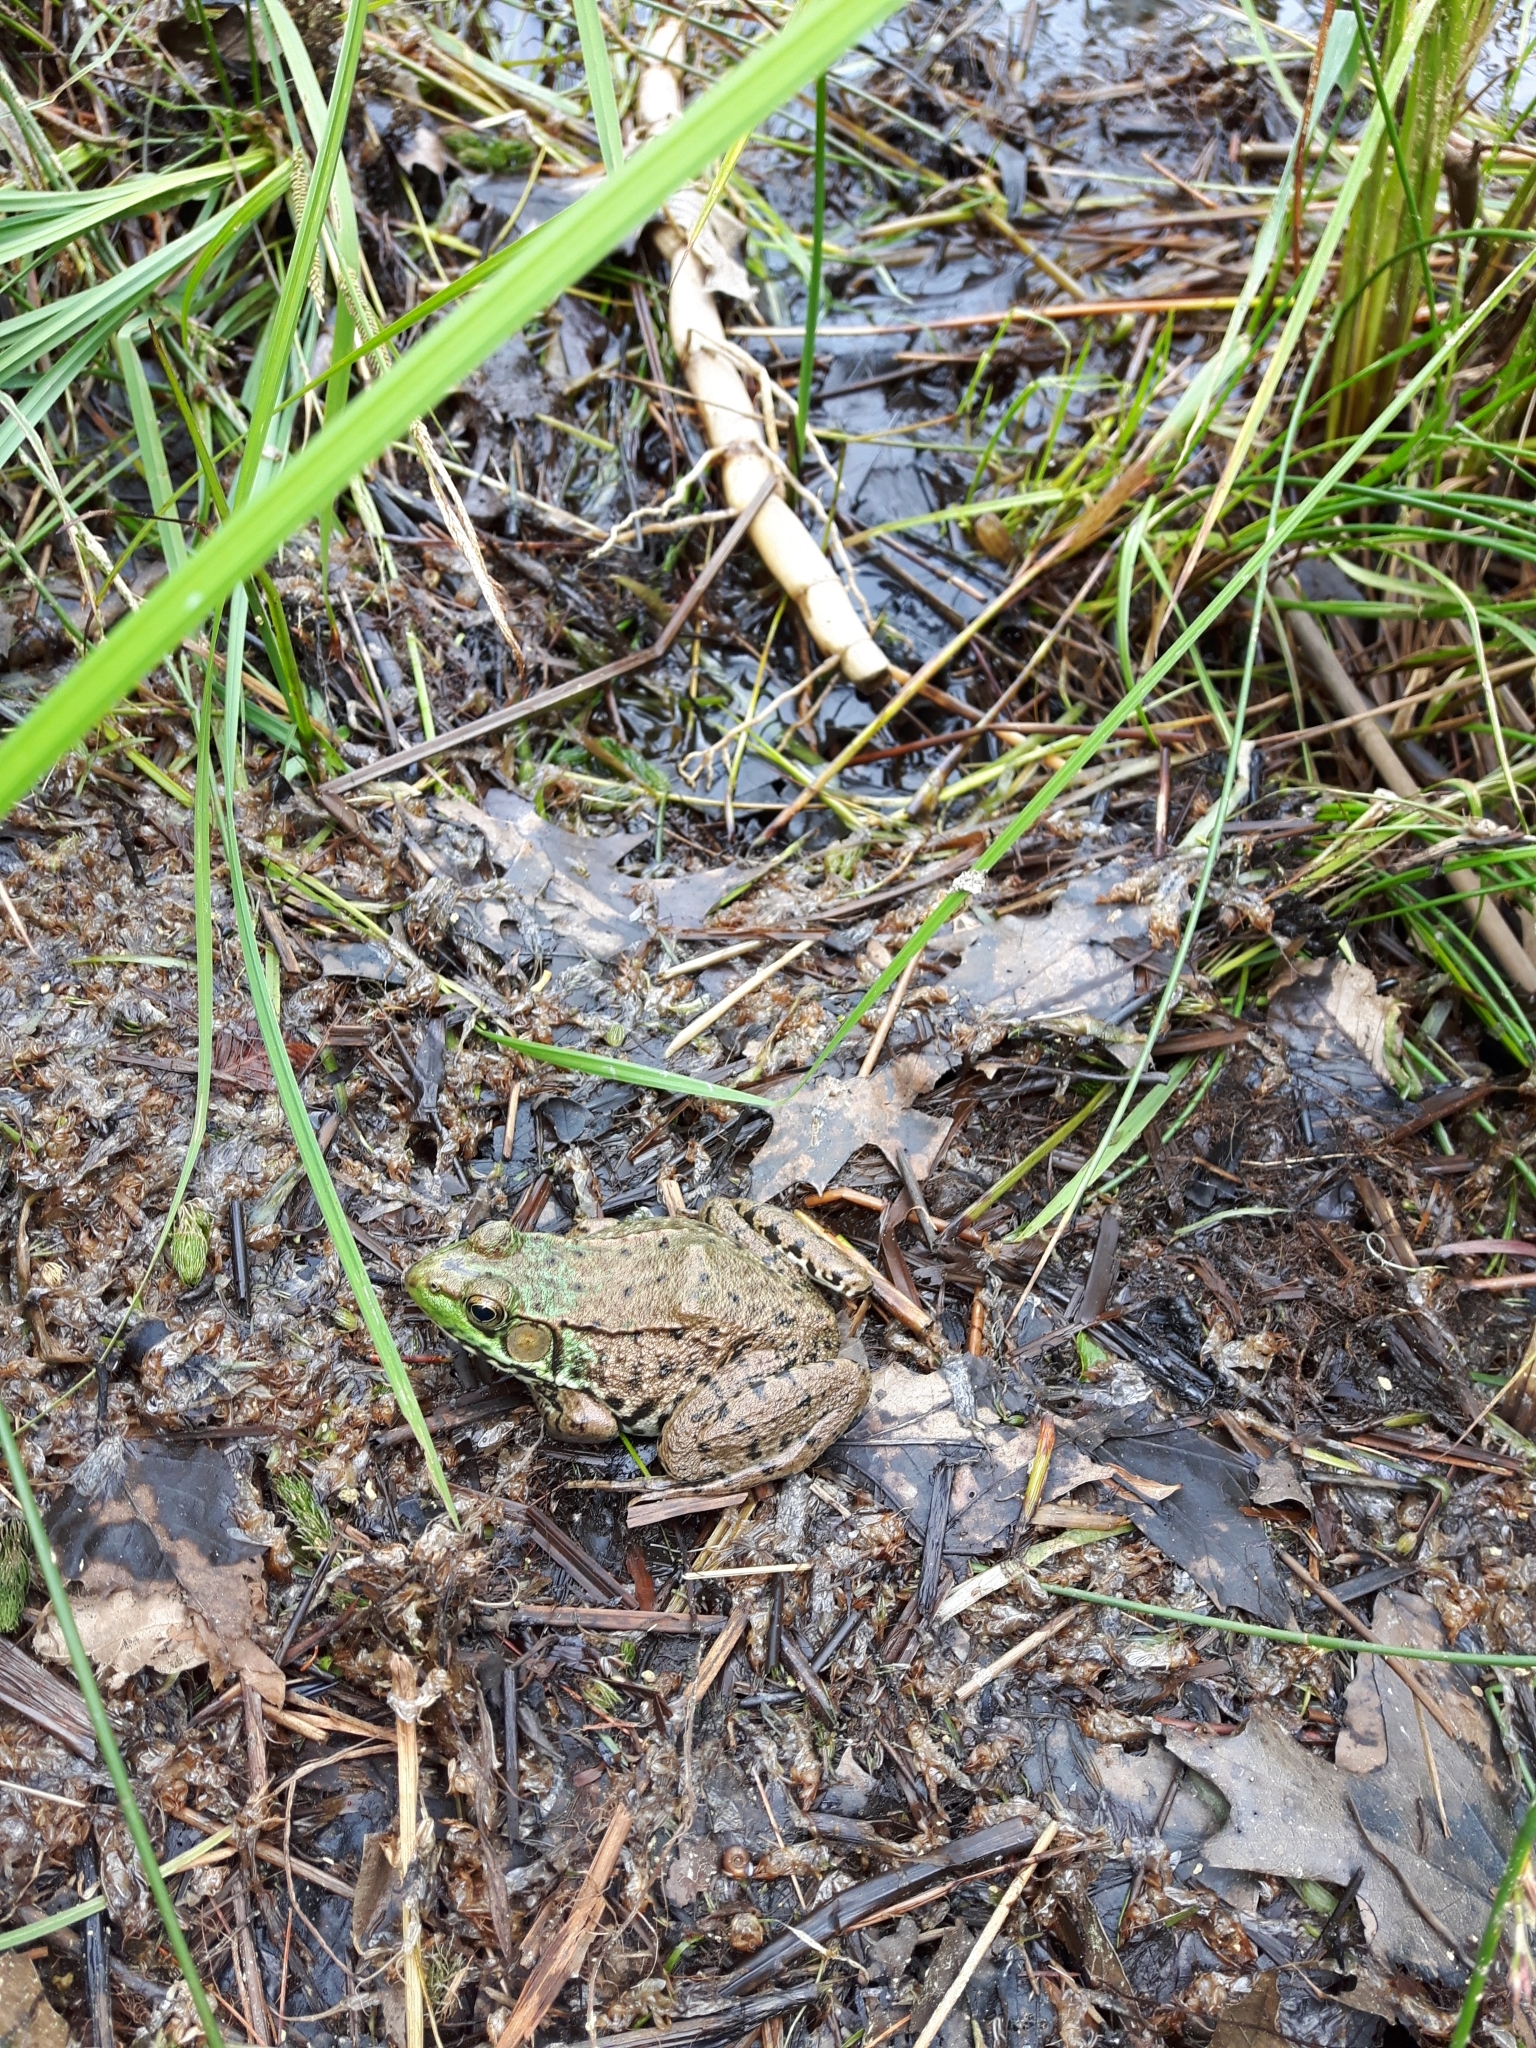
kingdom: Animalia
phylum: Chordata
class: Amphibia
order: Anura
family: Ranidae
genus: Lithobates
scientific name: Lithobates clamitans
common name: Green frog
